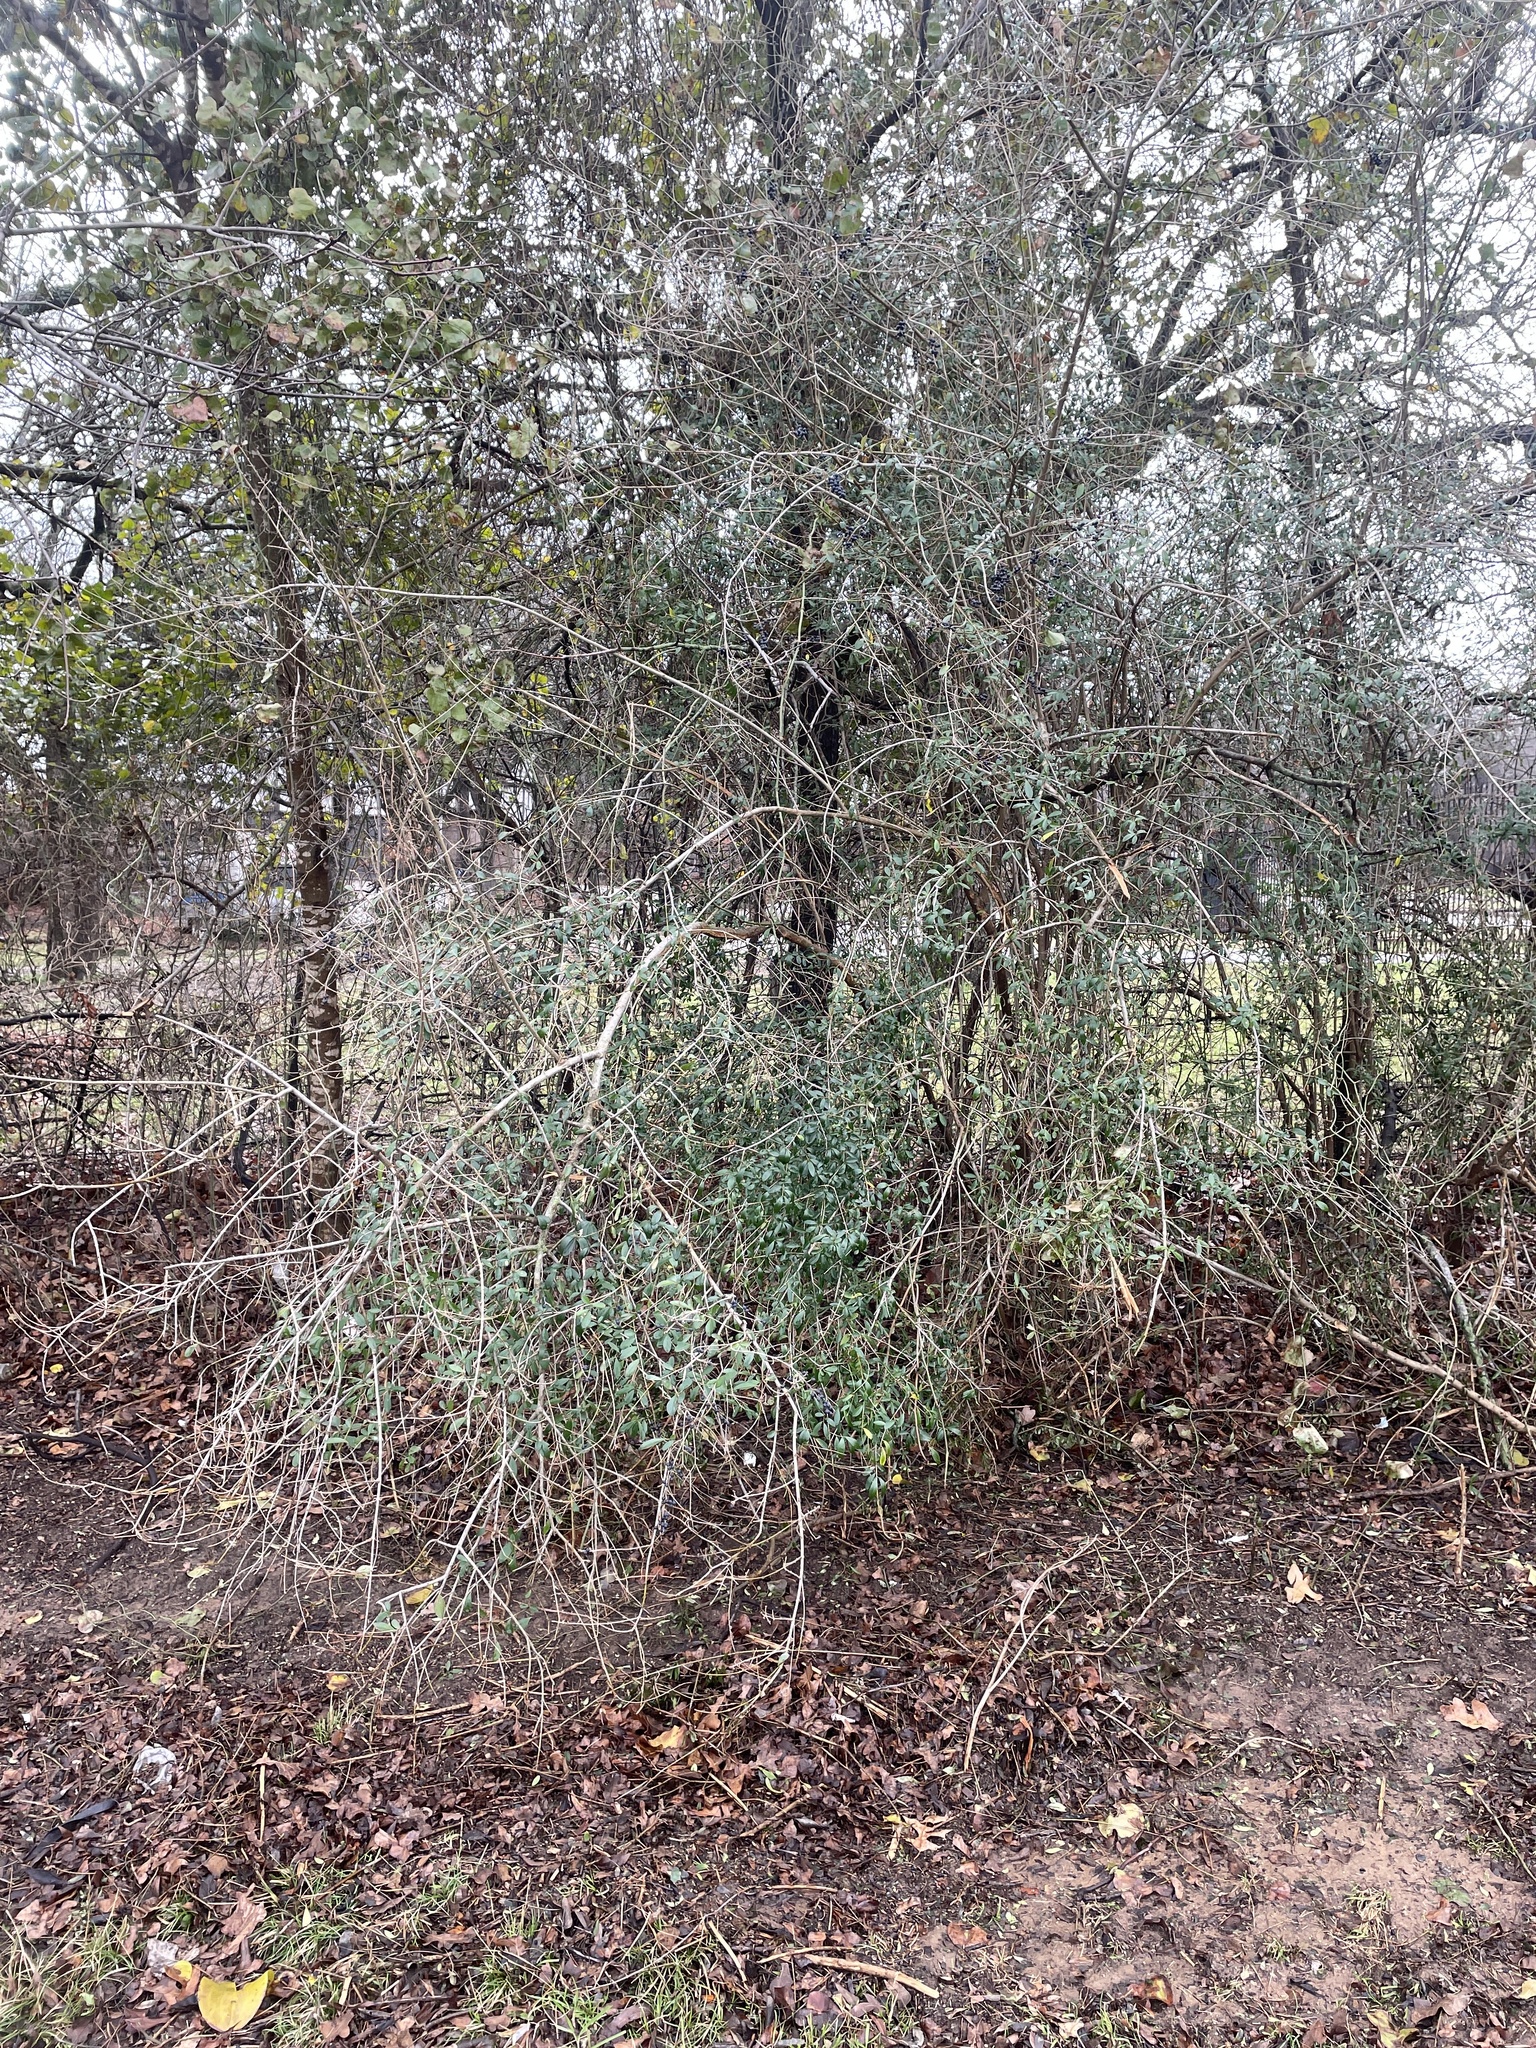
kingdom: Plantae
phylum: Tracheophyta
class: Magnoliopsida
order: Lamiales
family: Oleaceae
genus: Ligustrum
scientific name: Ligustrum quihoui
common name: Waxyleaf privet
